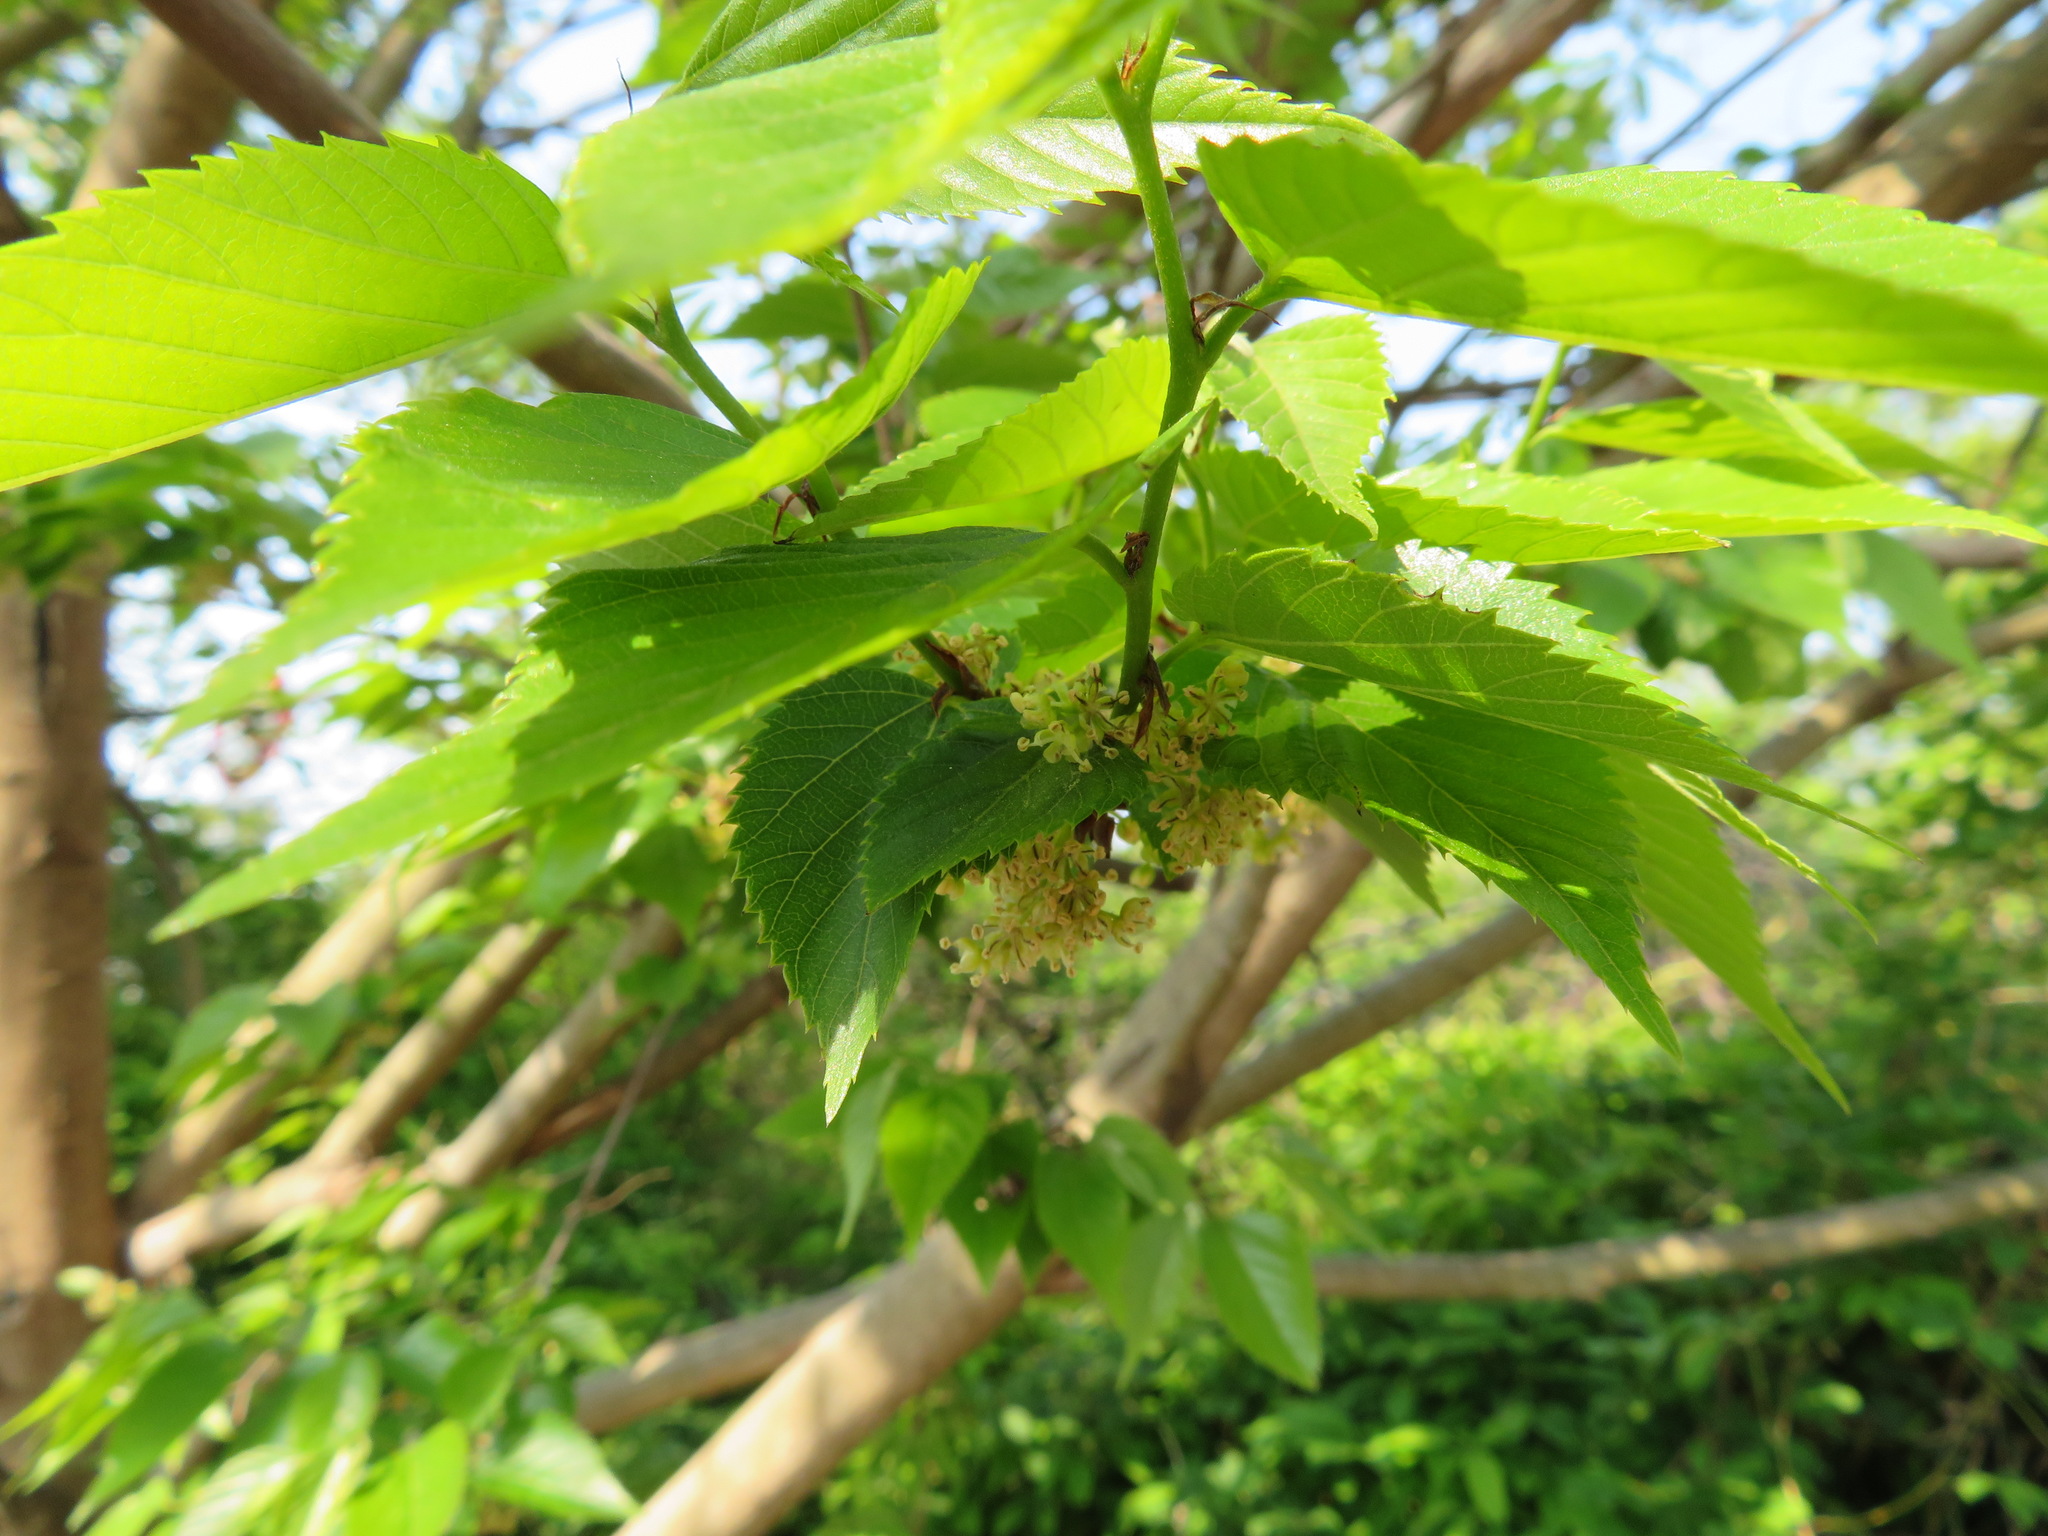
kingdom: Plantae
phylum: Tracheophyta
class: Magnoliopsida
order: Rosales
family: Cannabaceae
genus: Aphananthe
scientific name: Aphananthe aspera
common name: Mukutree
